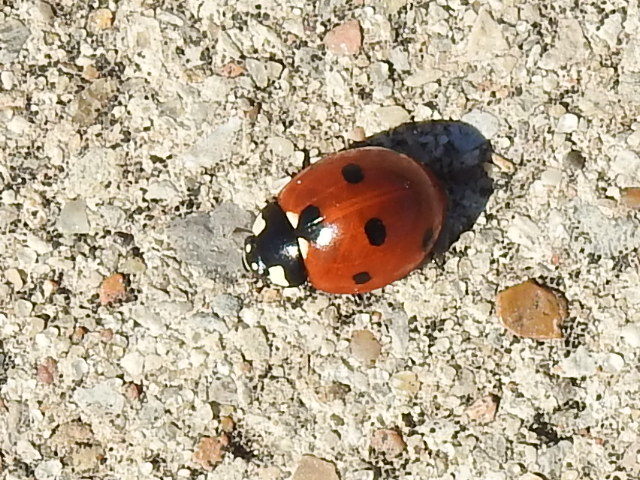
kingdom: Animalia
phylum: Arthropoda
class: Insecta
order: Coleoptera
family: Coccinellidae
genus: Coccinella
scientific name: Coccinella septempunctata
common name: Sevenspotted lady beetle
